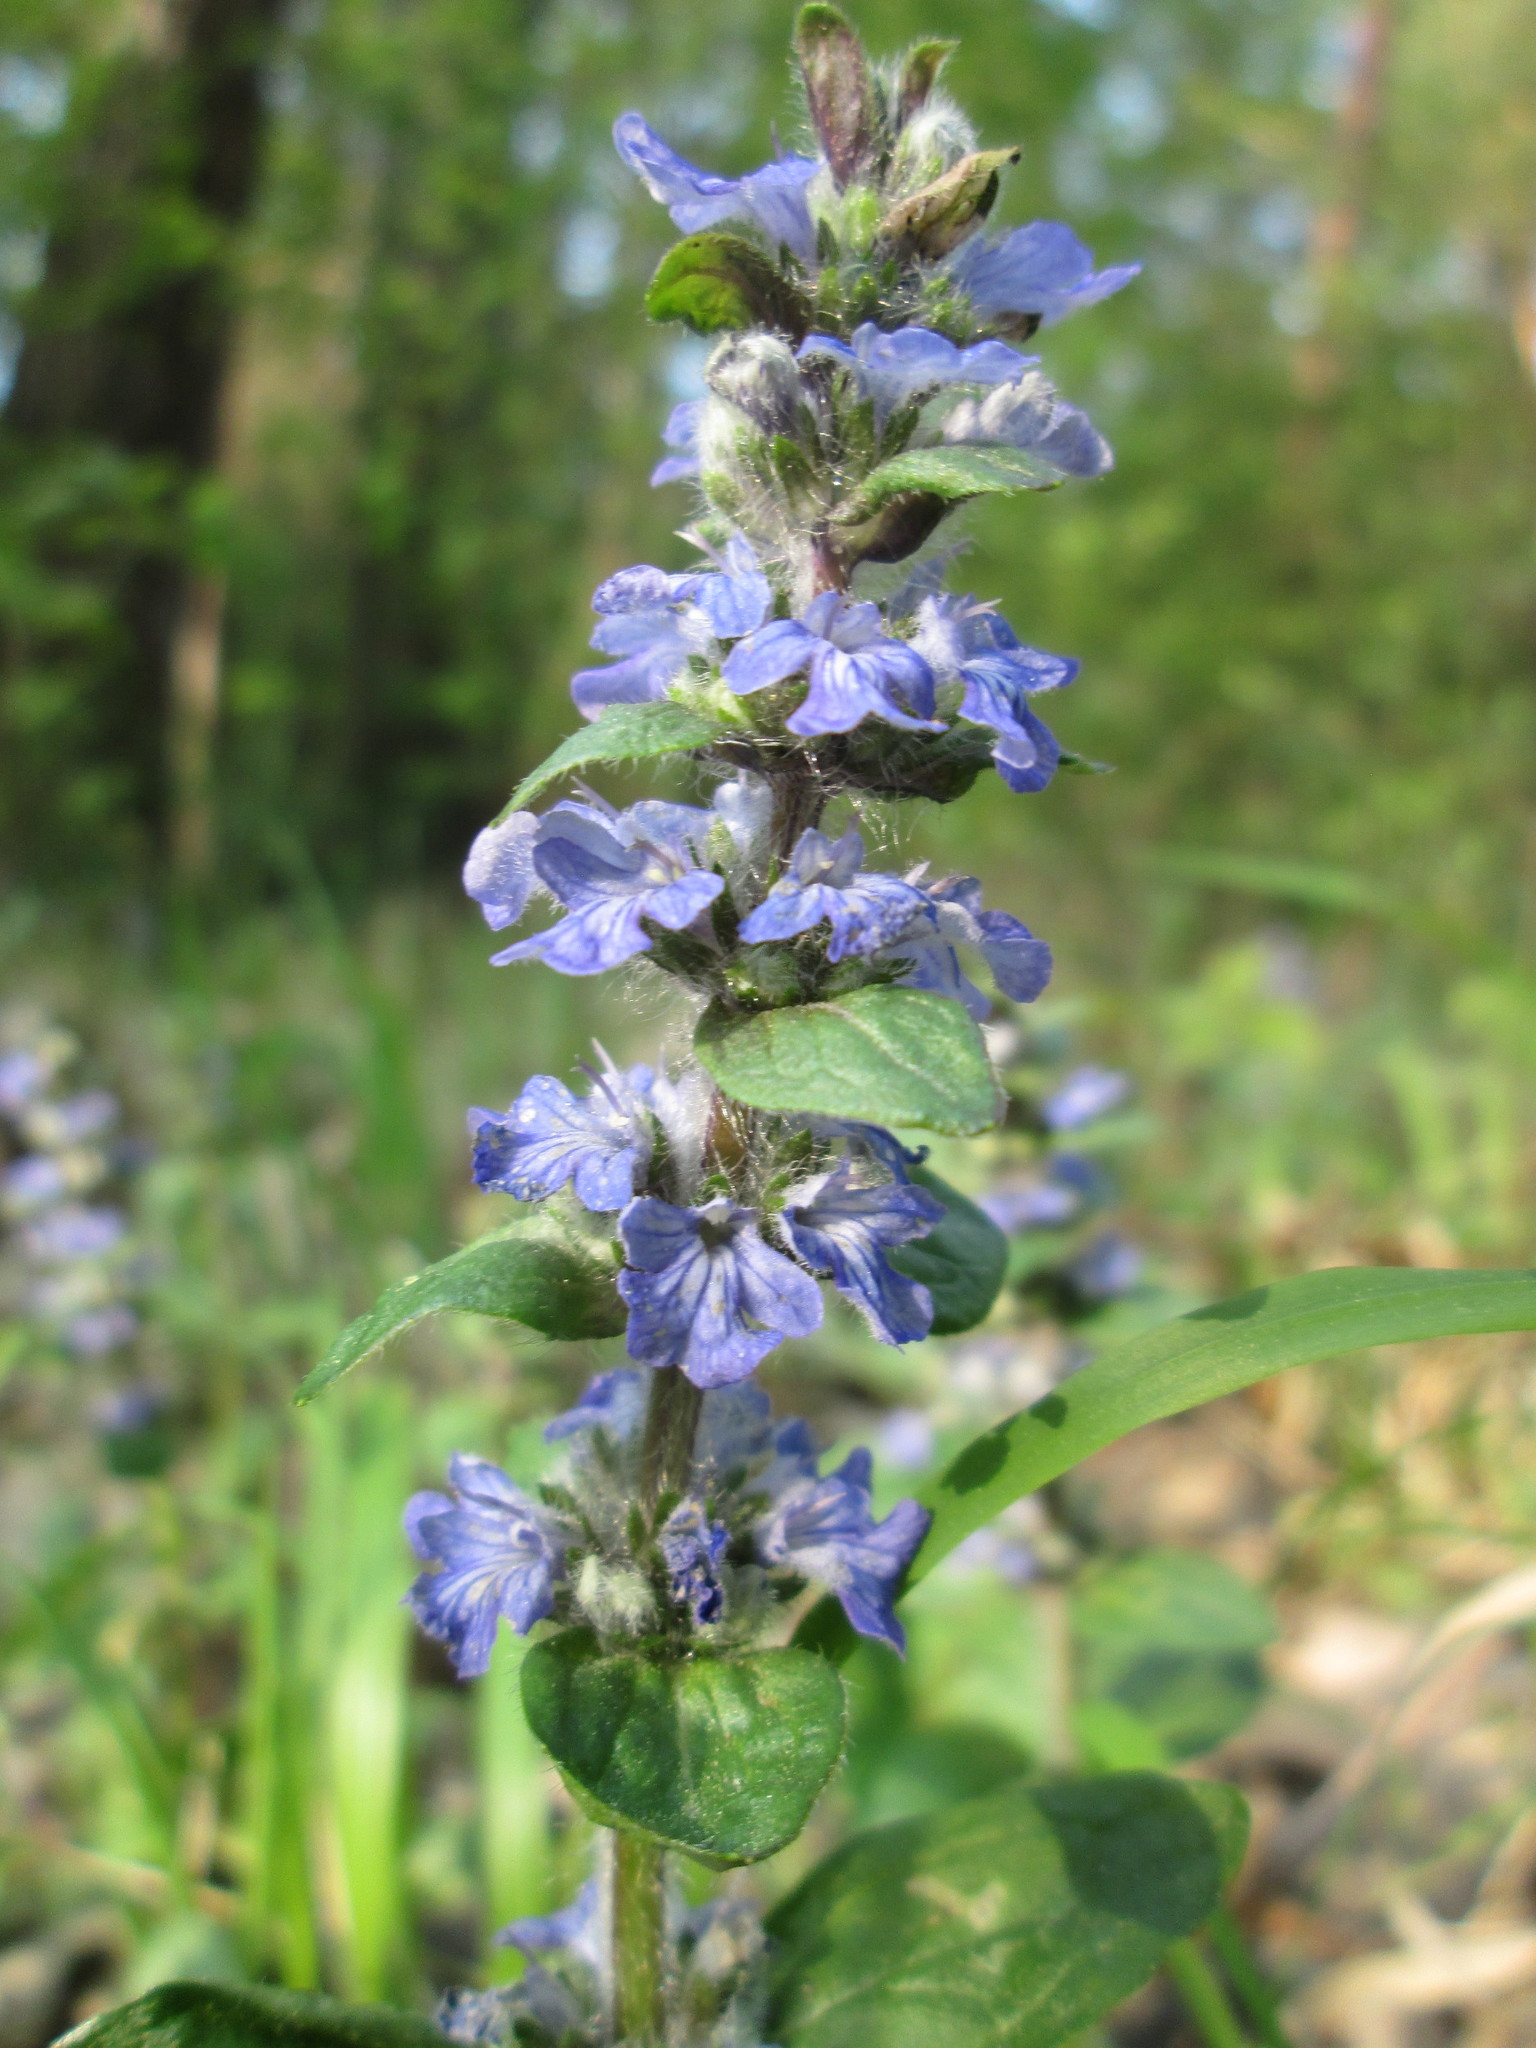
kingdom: Plantae
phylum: Tracheophyta
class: Magnoliopsida
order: Lamiales
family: Lamiaceae
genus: Ajuga
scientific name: Ajuga reptans
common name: Bugle
